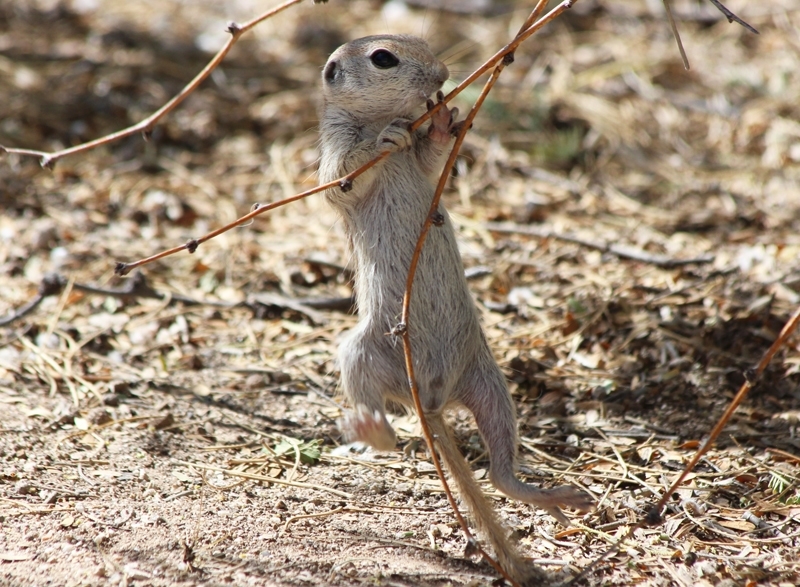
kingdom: Animalia
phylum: Chordata
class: Mammalia
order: Rodentia
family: Sciuridae
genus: Xerospermophilus
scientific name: Xerospermophilus tereticaudus
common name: Round-tailed ground squirrel
